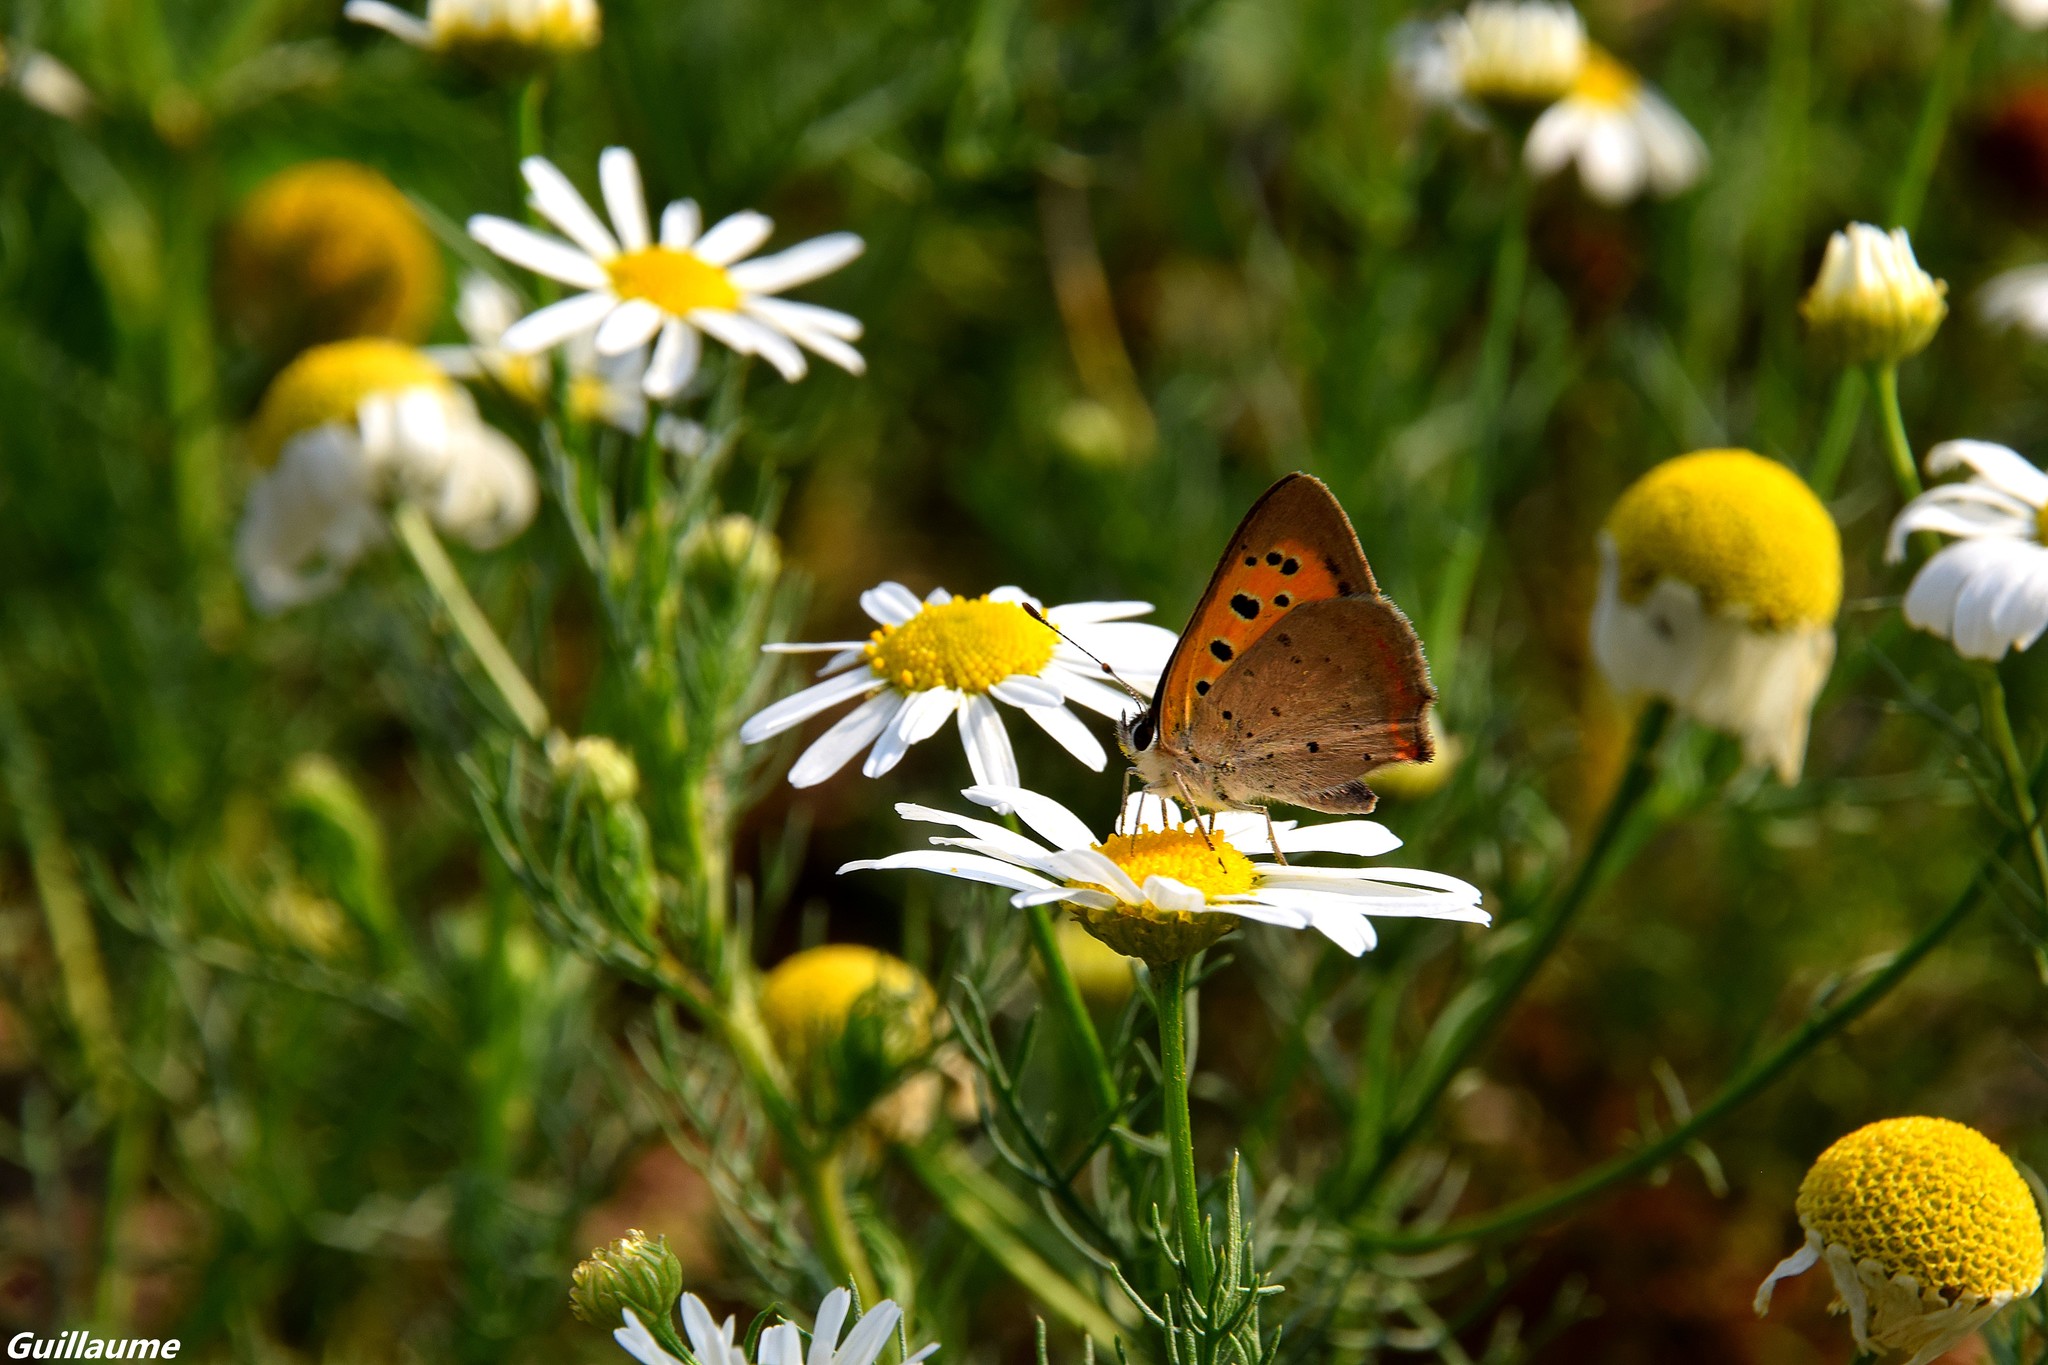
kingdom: Animalia
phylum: Arthropoda
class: Insecta
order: Lepidoptera
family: Lycaenidae
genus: Lycaena
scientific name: Lycaena phlaeas
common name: Small copper
